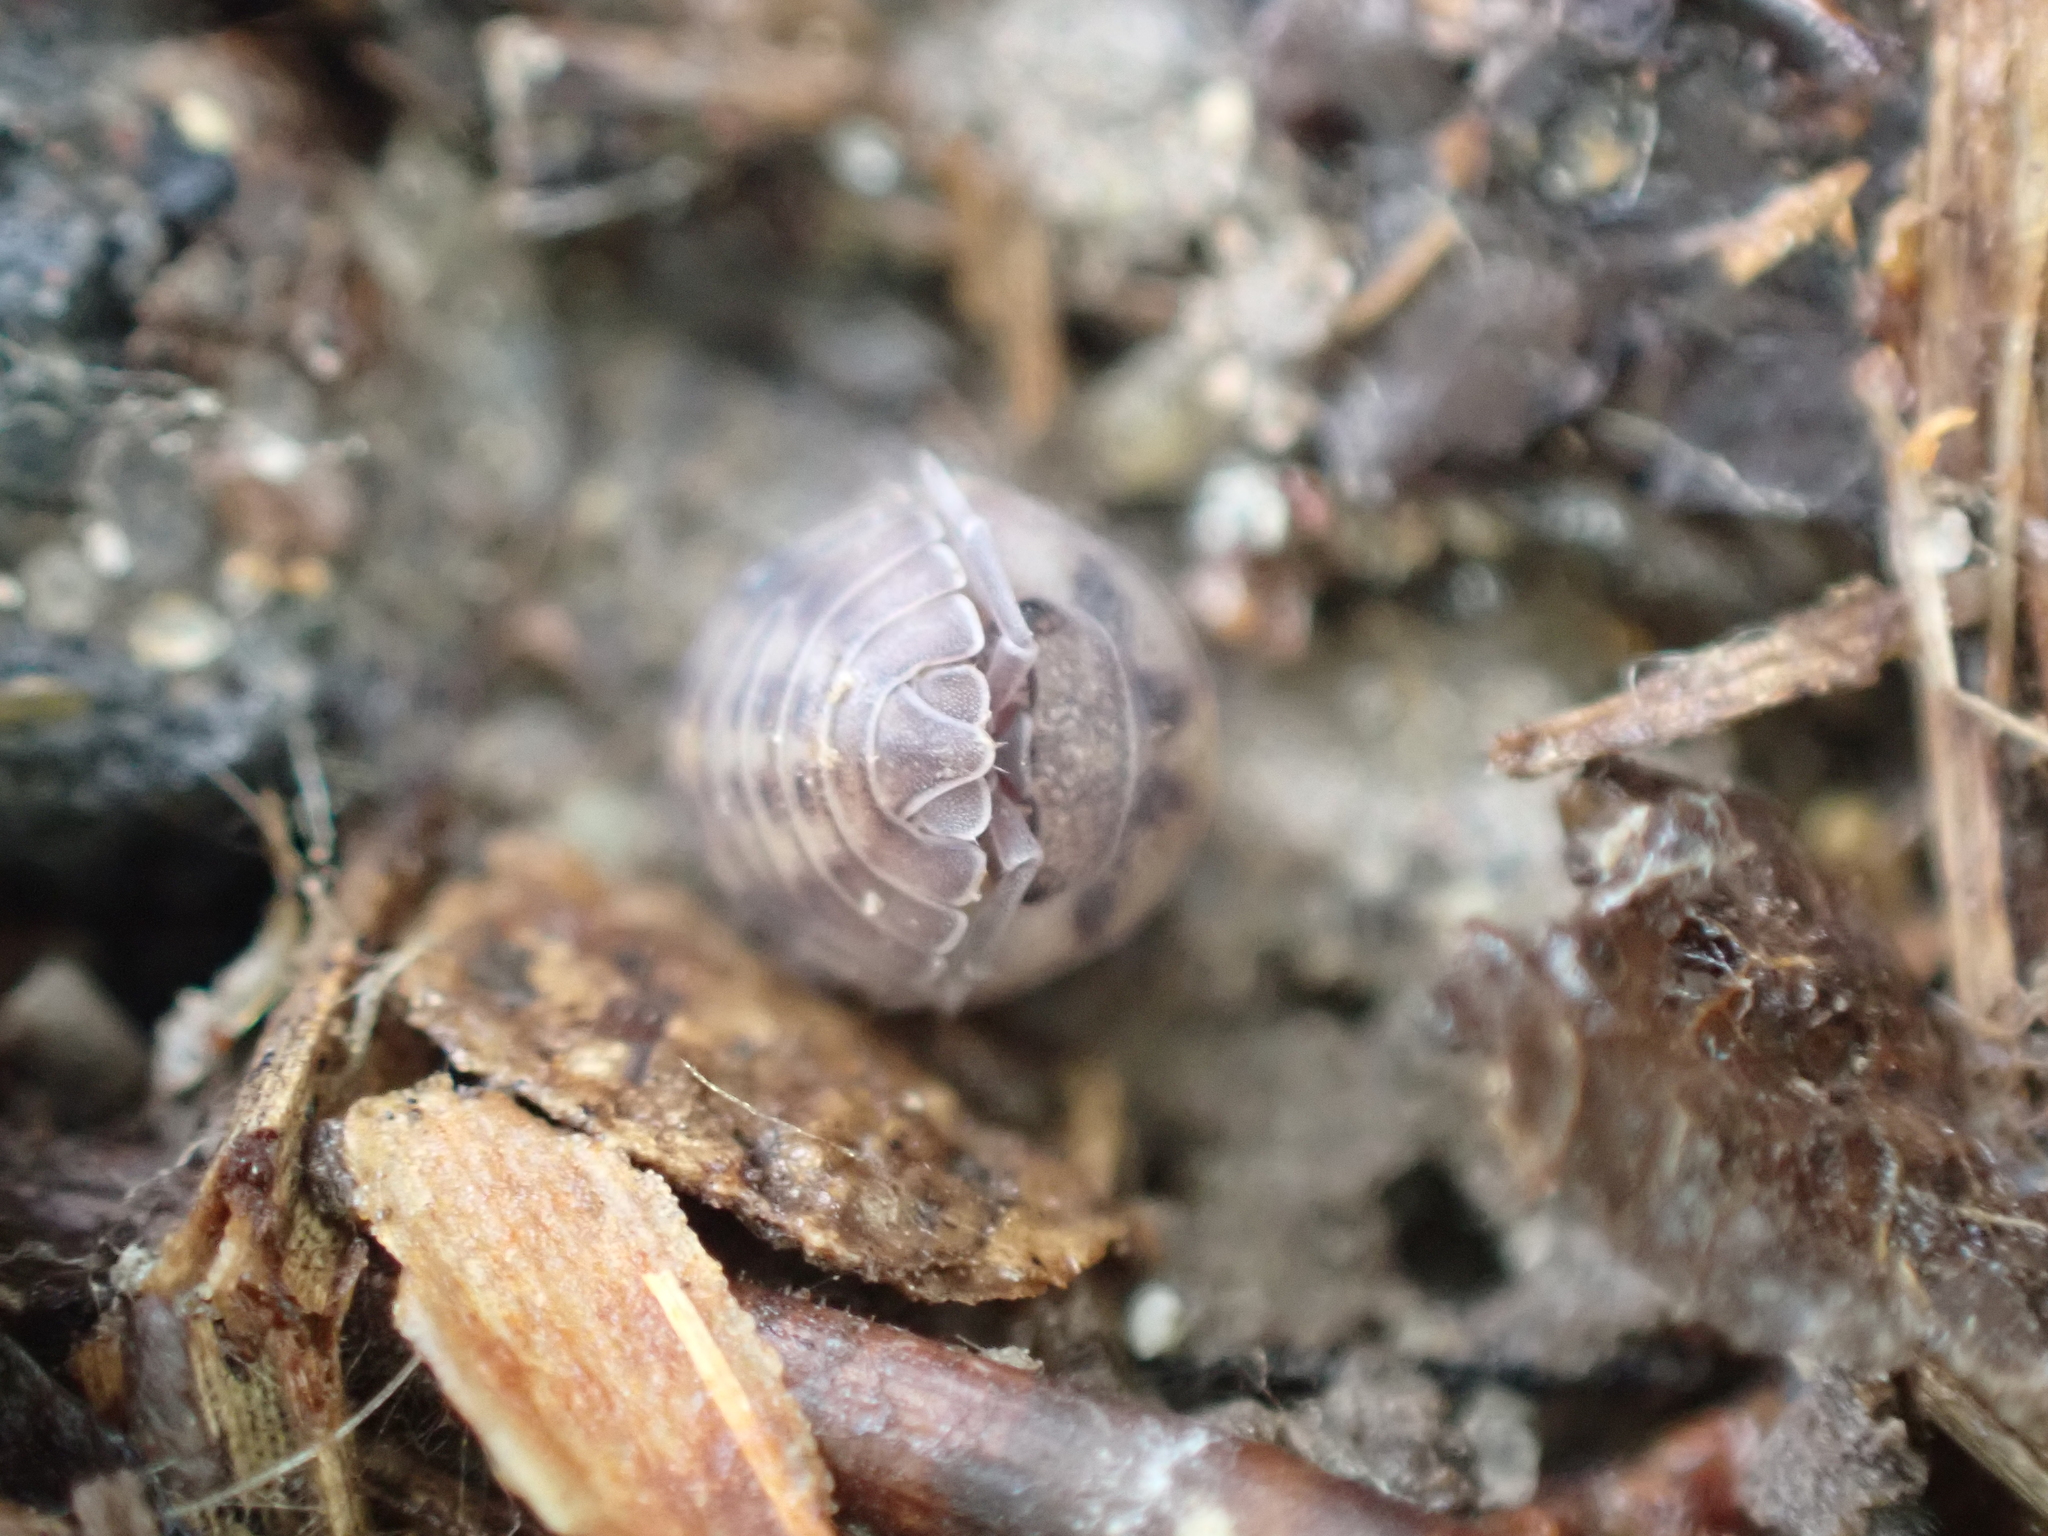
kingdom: Animalia
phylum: Arthropoda
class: Malacostraca
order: Isopoda
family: Armadillidiidae
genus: Armadillidium
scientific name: Armadillidium nasatum
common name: Isopod
